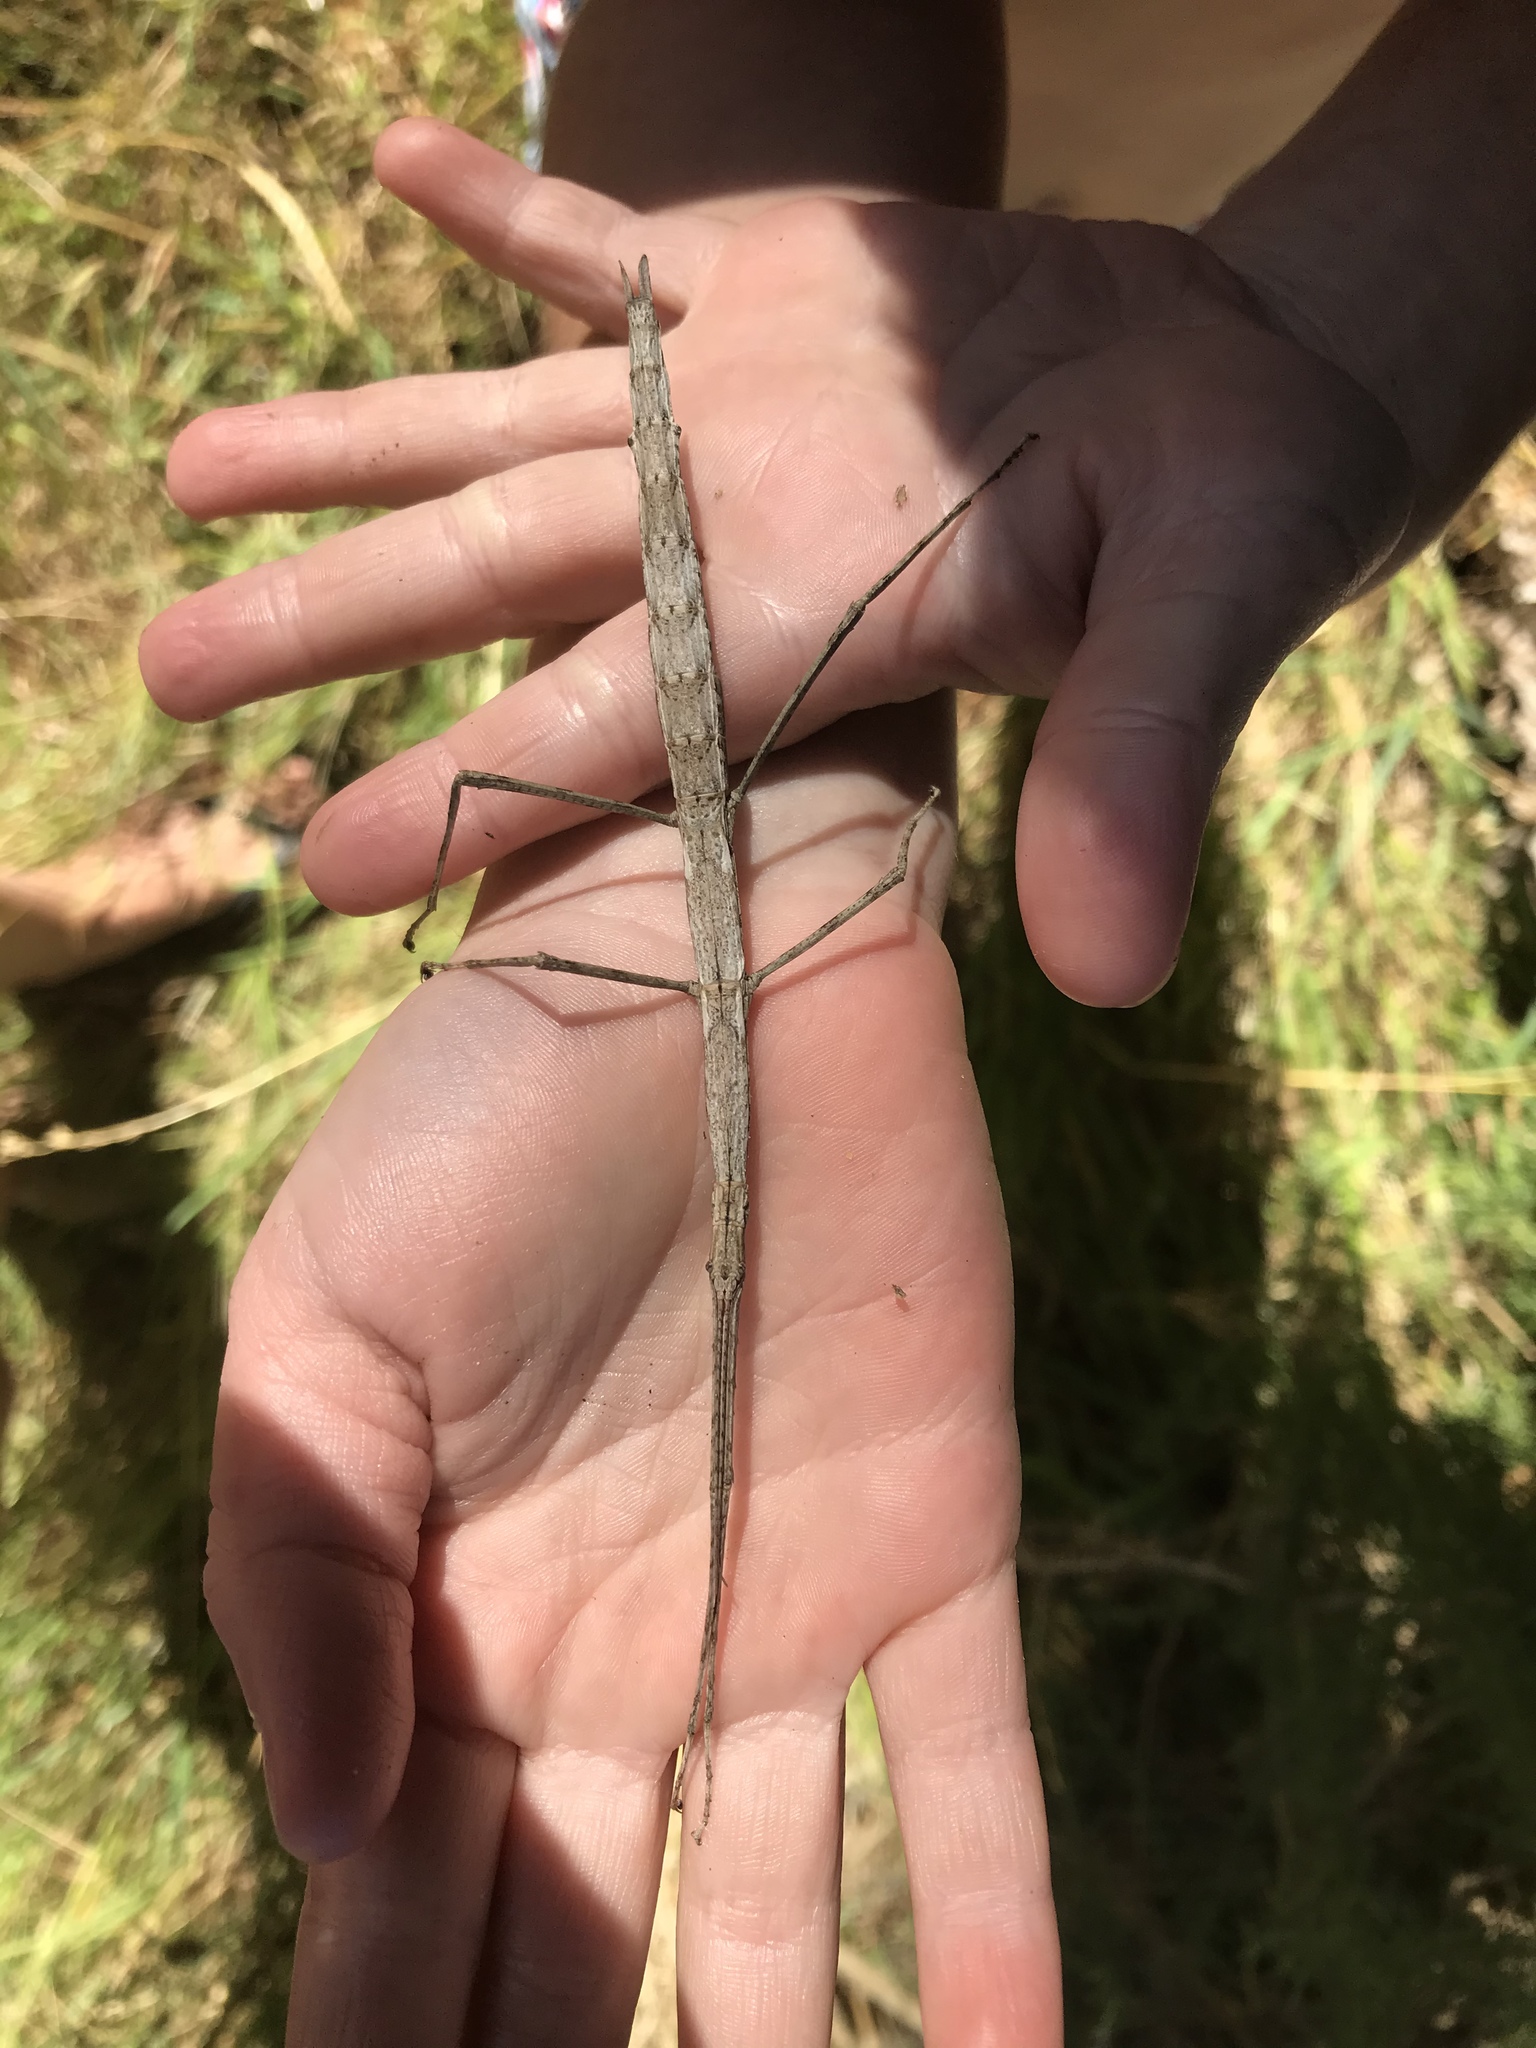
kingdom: Animalia
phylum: Arthropoda
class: Insecta
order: Phasmida
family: Phasmatidae
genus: Clitarchus
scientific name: Clitarchus hookeri
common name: Smooth stick insect
